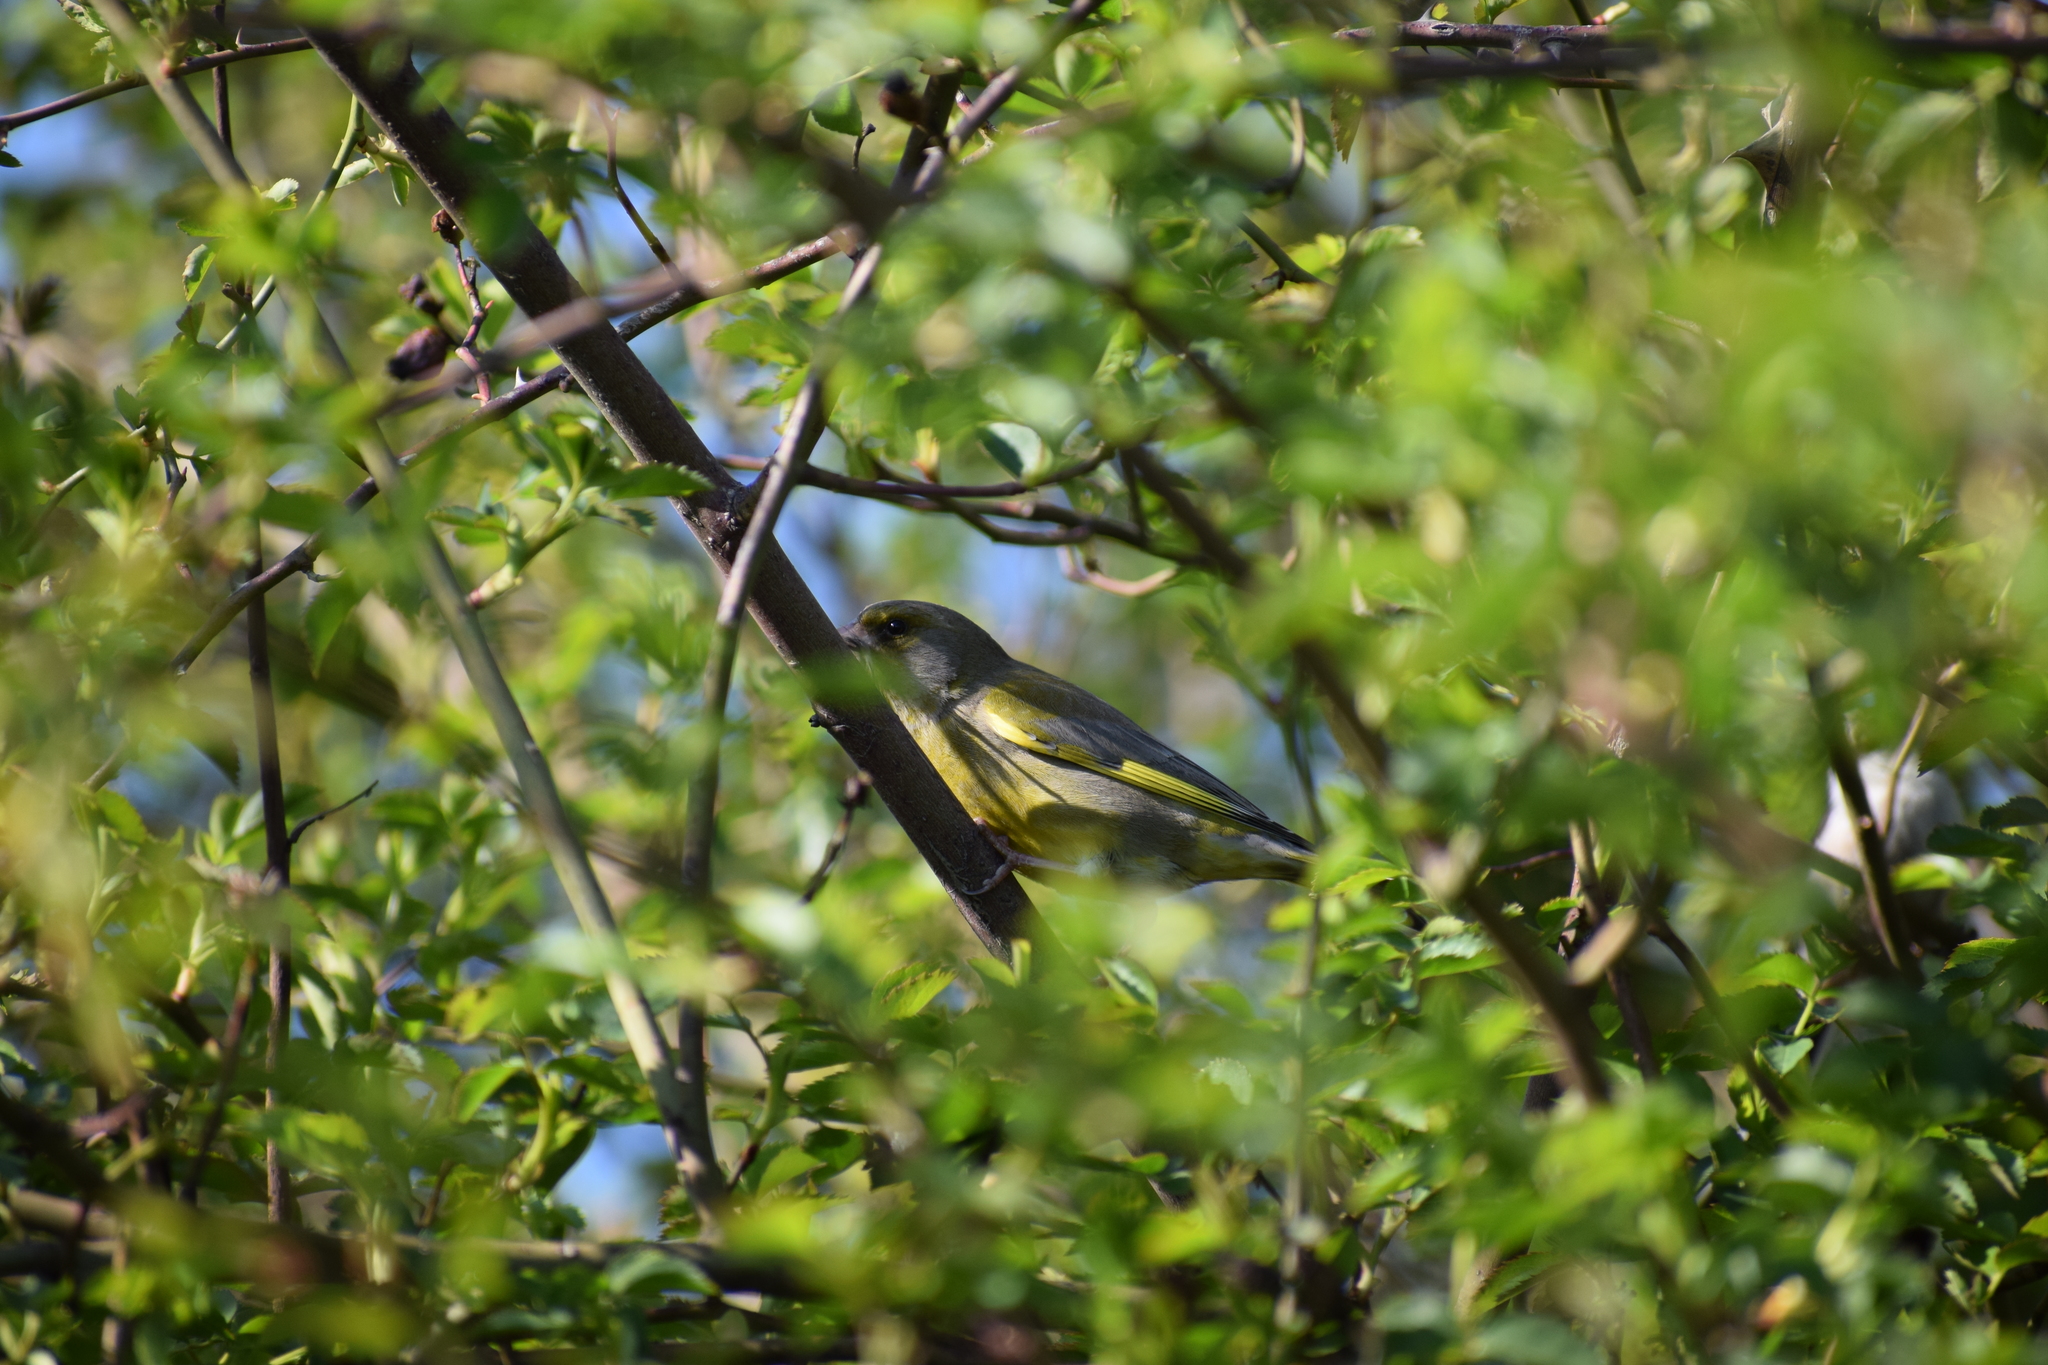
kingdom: Plantae
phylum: Tracheophyta
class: Liliopsida
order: Poales
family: Poaceae
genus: Chloris
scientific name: Chloris chloris
